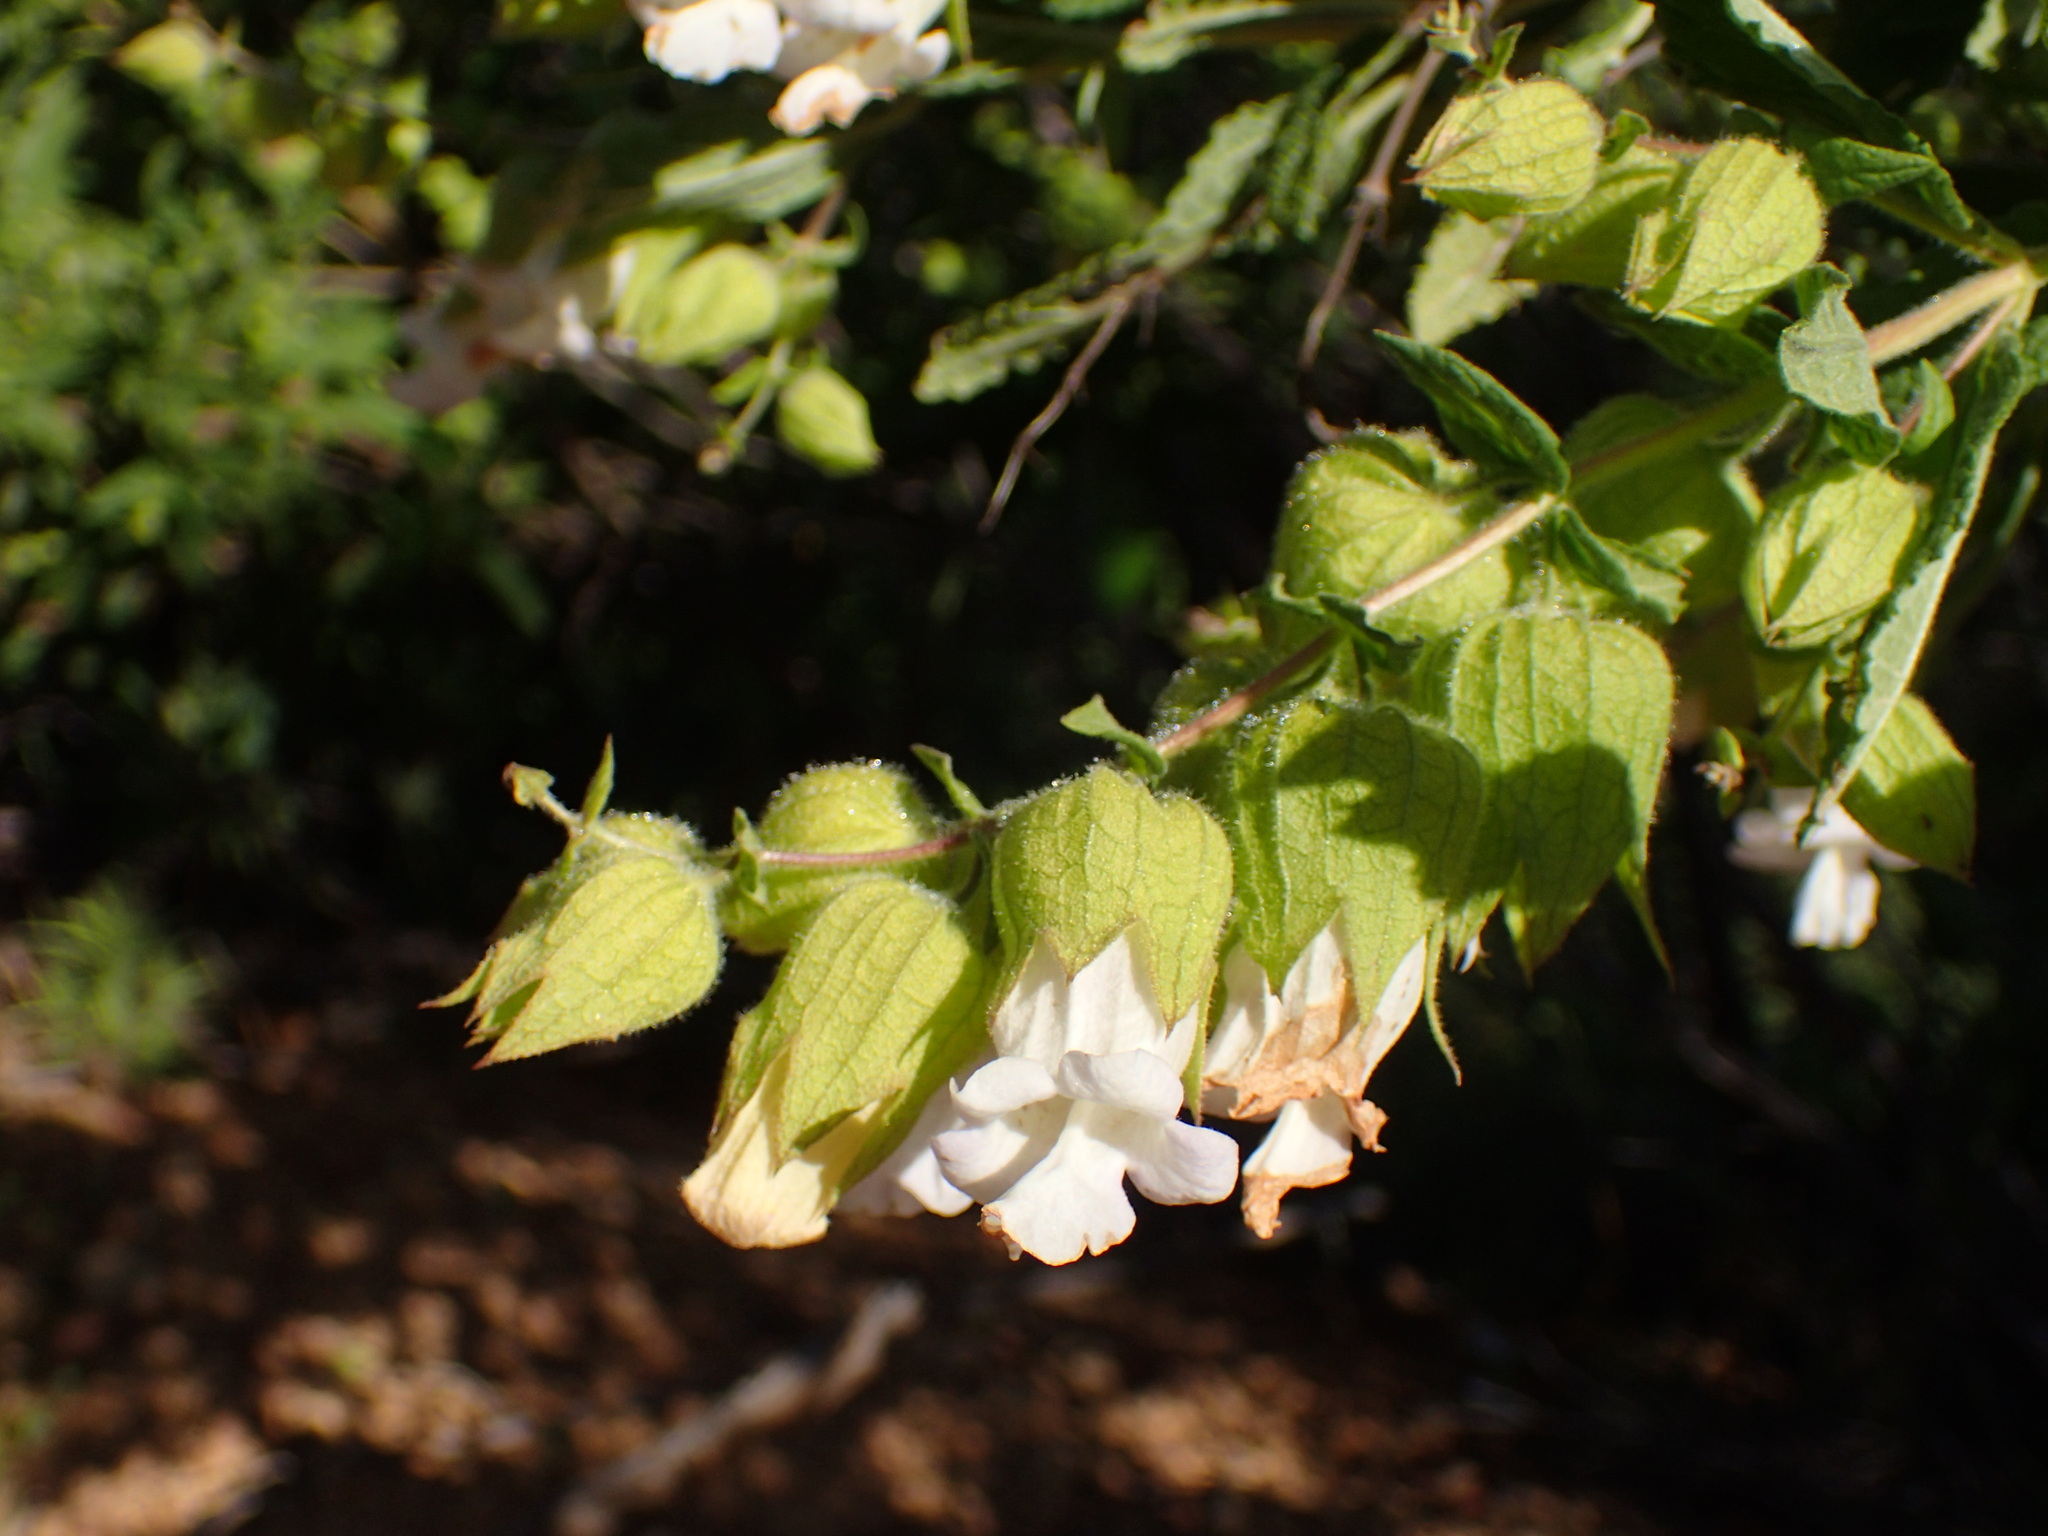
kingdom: Plantae
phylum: Tracheophyta
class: Magnoliopsida
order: Lamiales
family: Lamiaceae
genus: Lepechinia
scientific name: Lepechinia calycina
